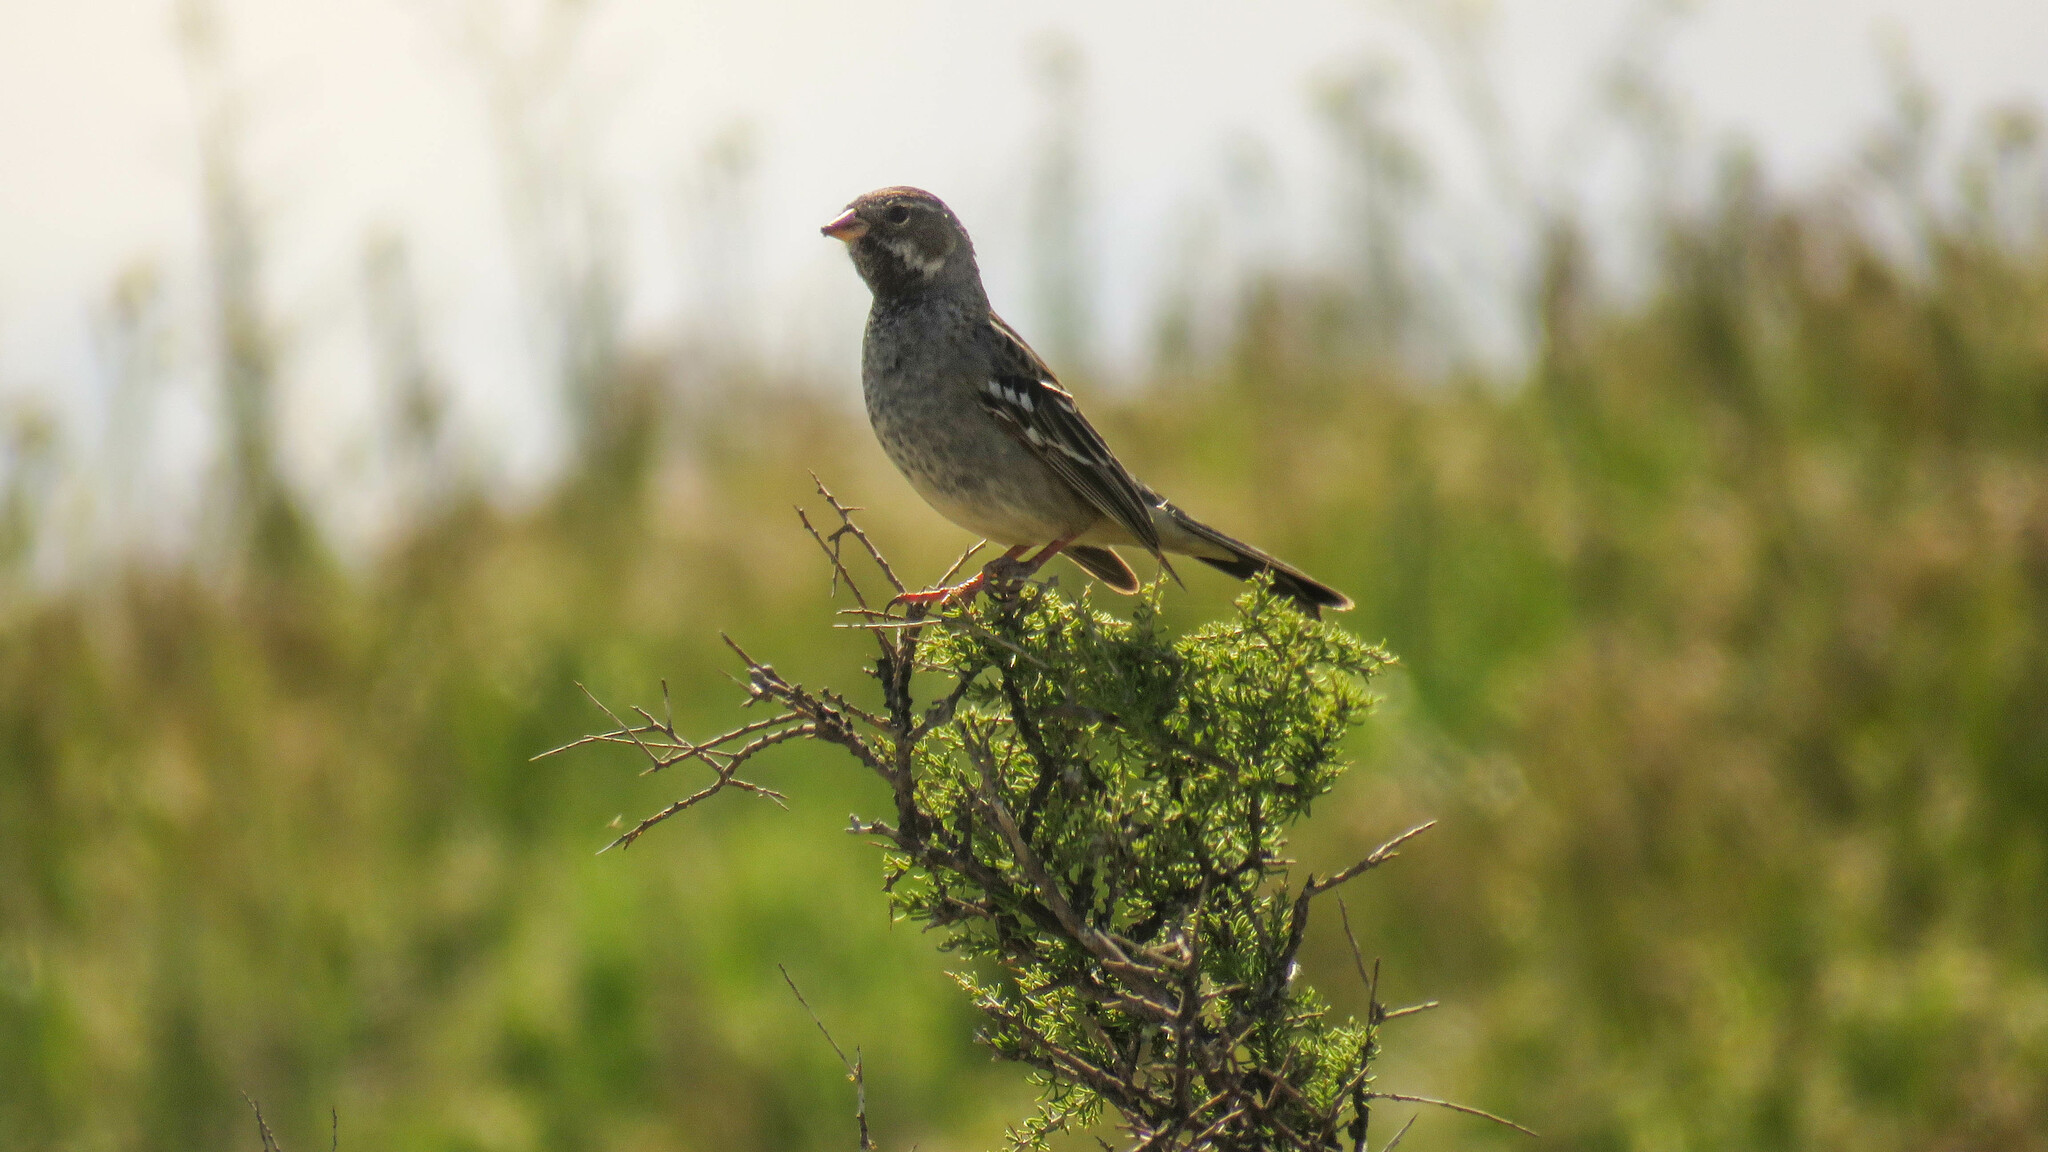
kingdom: Animalia
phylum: Chordata
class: Aves
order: Passeriformes
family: Thraupidae
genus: Rhopospina
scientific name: Rhopospina fruticeti
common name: Mourning sierra finch
